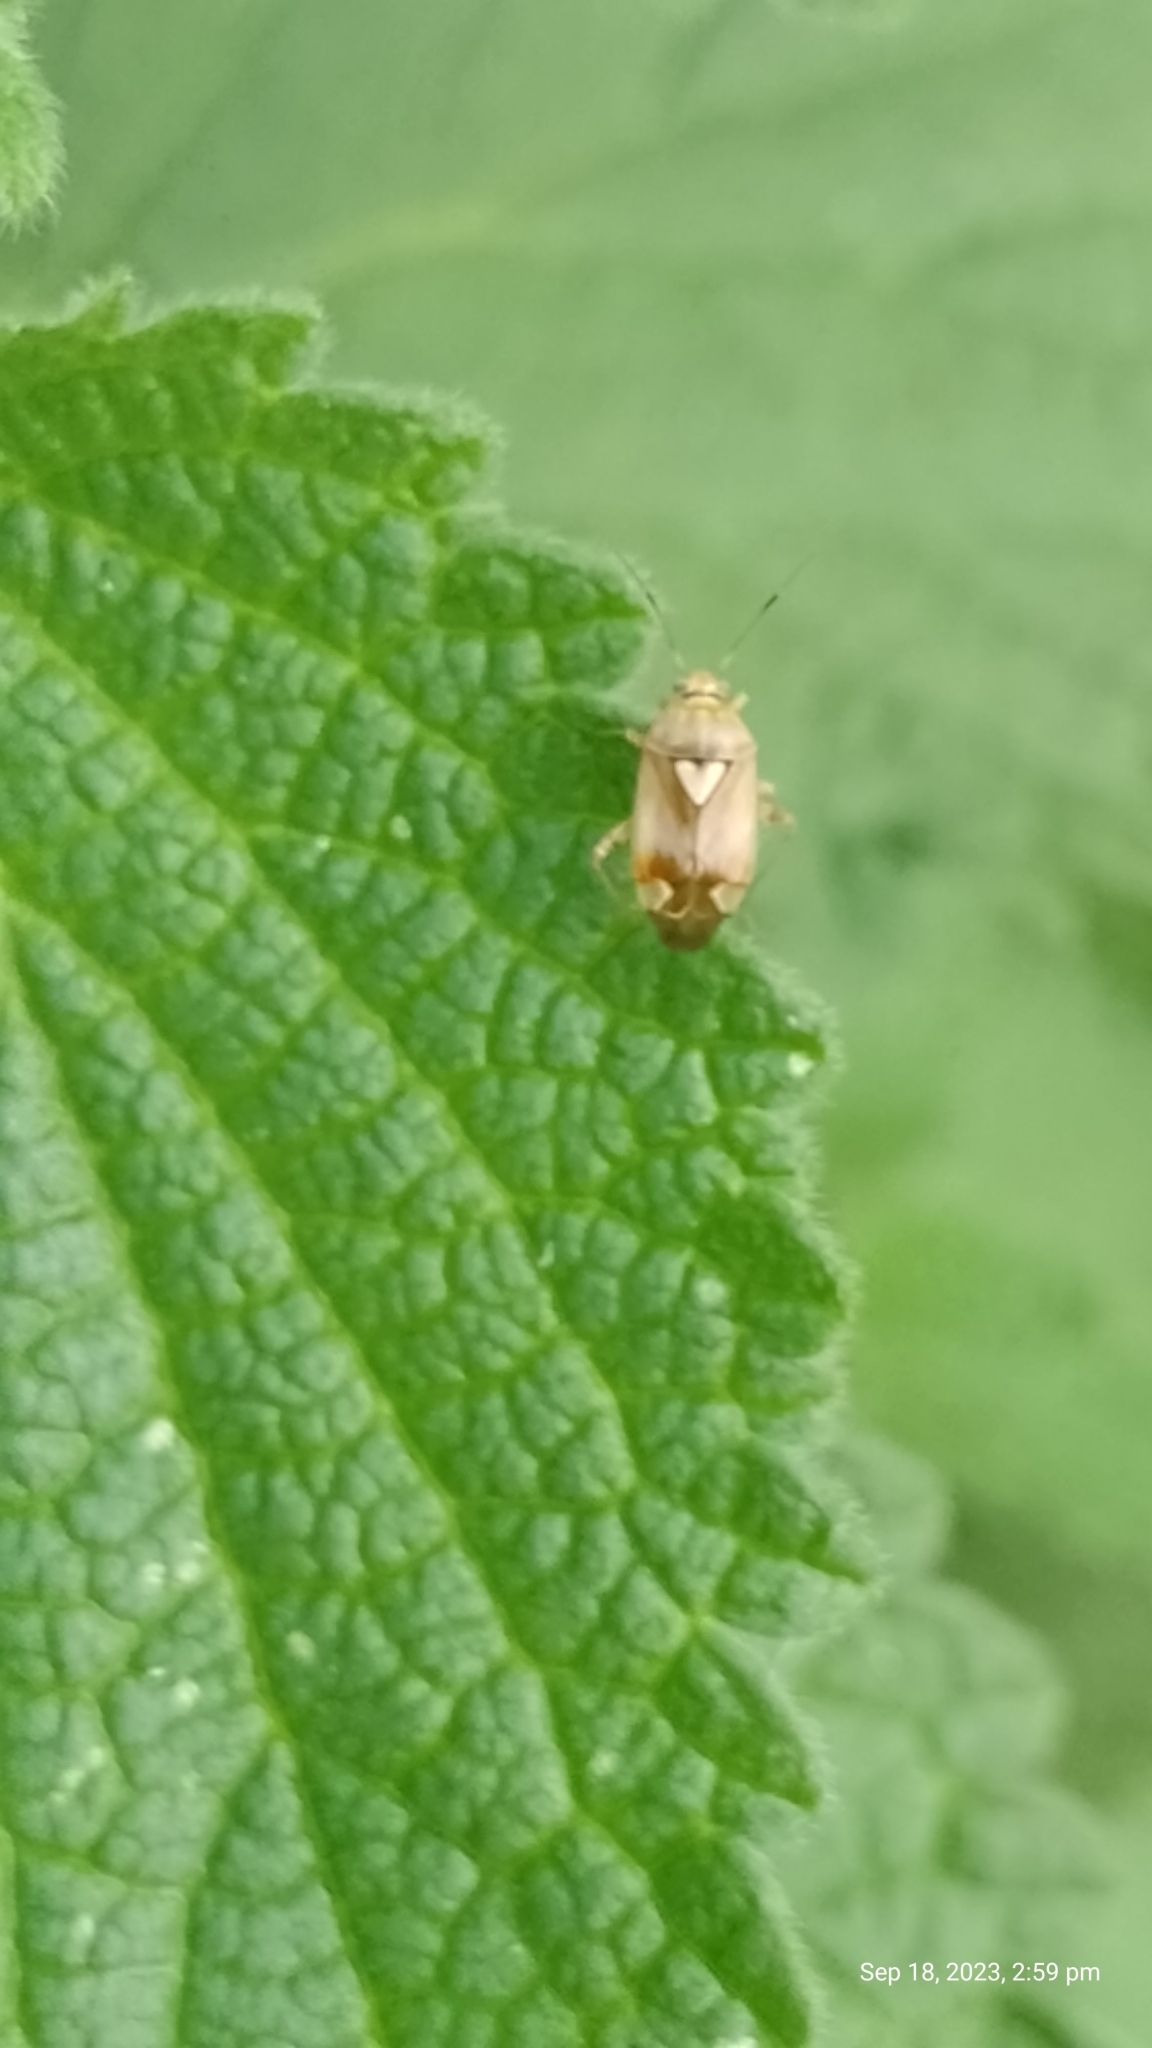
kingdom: Animalia
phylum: Arthropoda
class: Insecta
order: Hemiptera
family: Miridae
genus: Lygus
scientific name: Lygus pratensis
